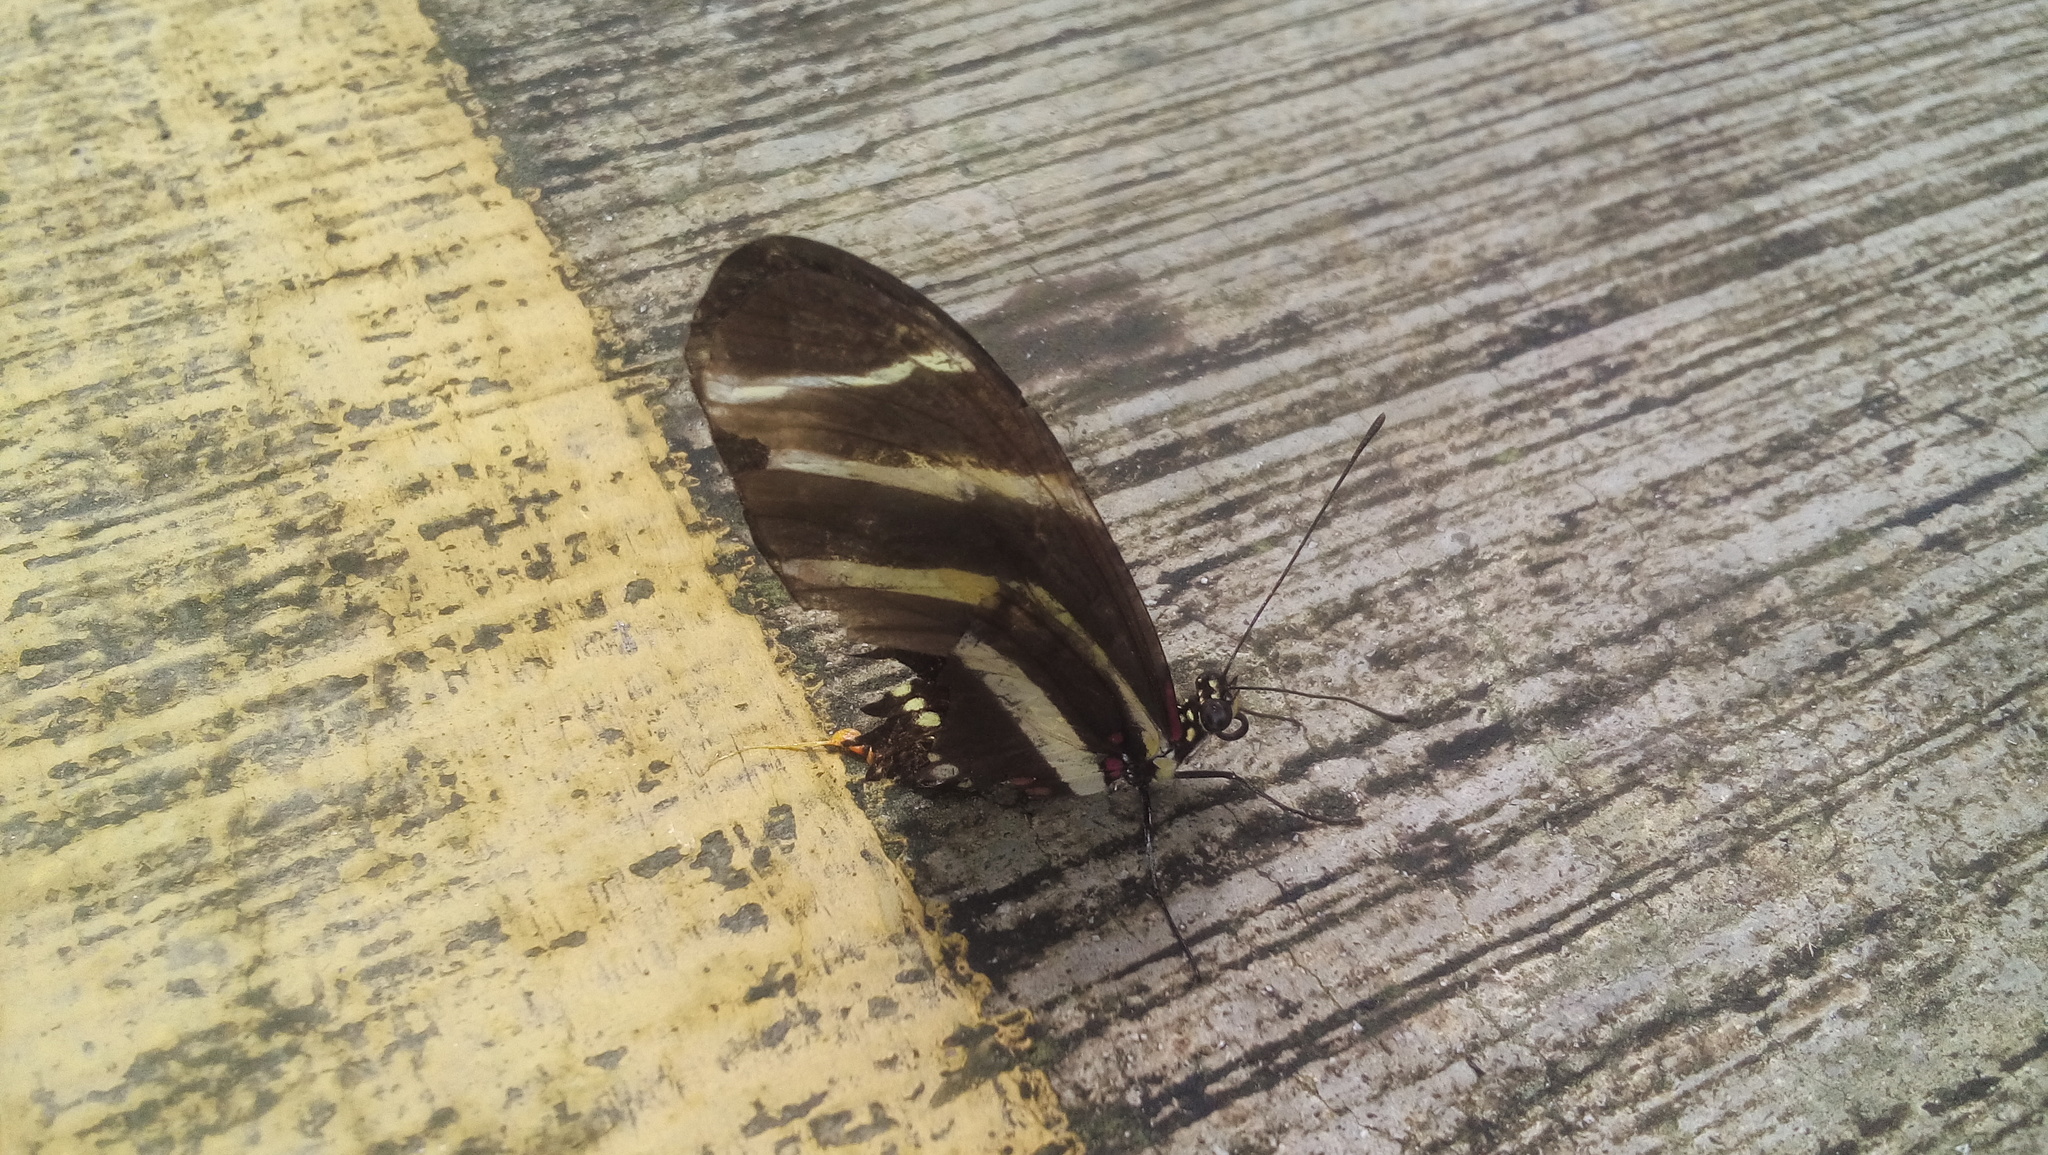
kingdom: Animalia
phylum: Arthropoda
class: Insecta
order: Lepidoptera
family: Nymphalidae
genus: Heliconius
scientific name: Heliconius charithonia
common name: Zebra long wing
